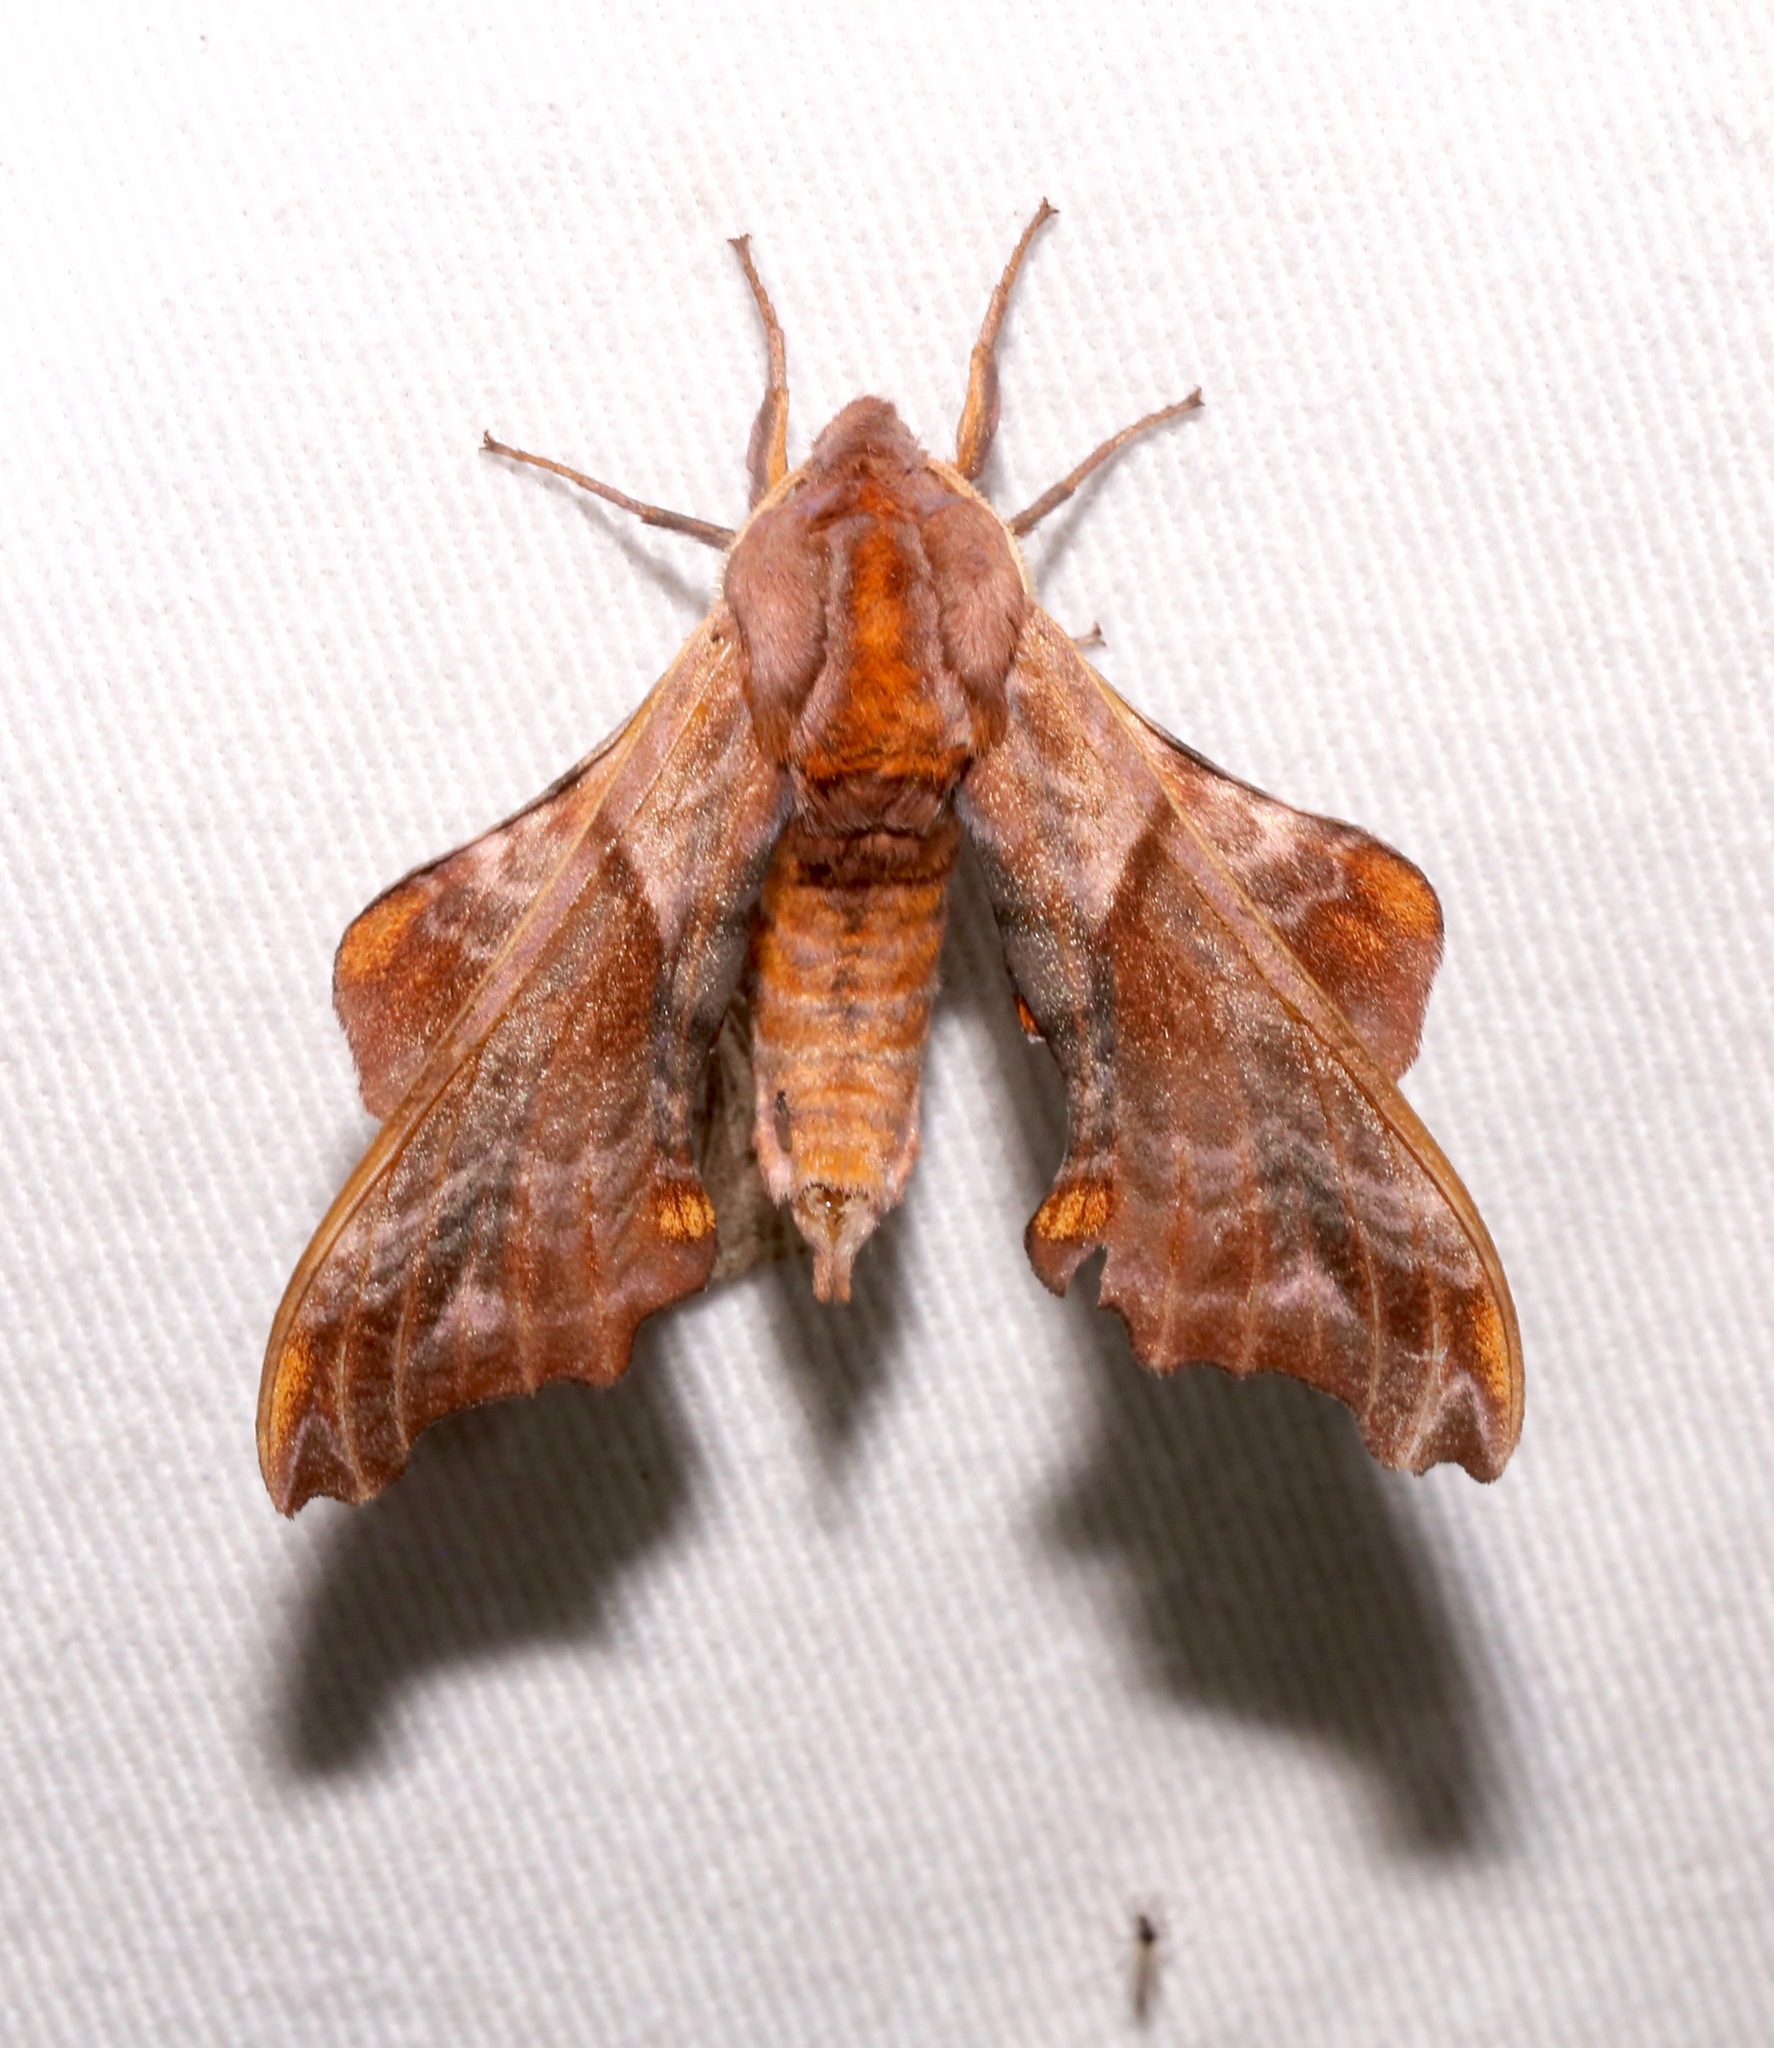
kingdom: Animalia
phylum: Arthropoda
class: Insecta
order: Lepidoptera
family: Sphingidae
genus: Paonias
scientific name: Paonias myops
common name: Small-eyed sphinx
